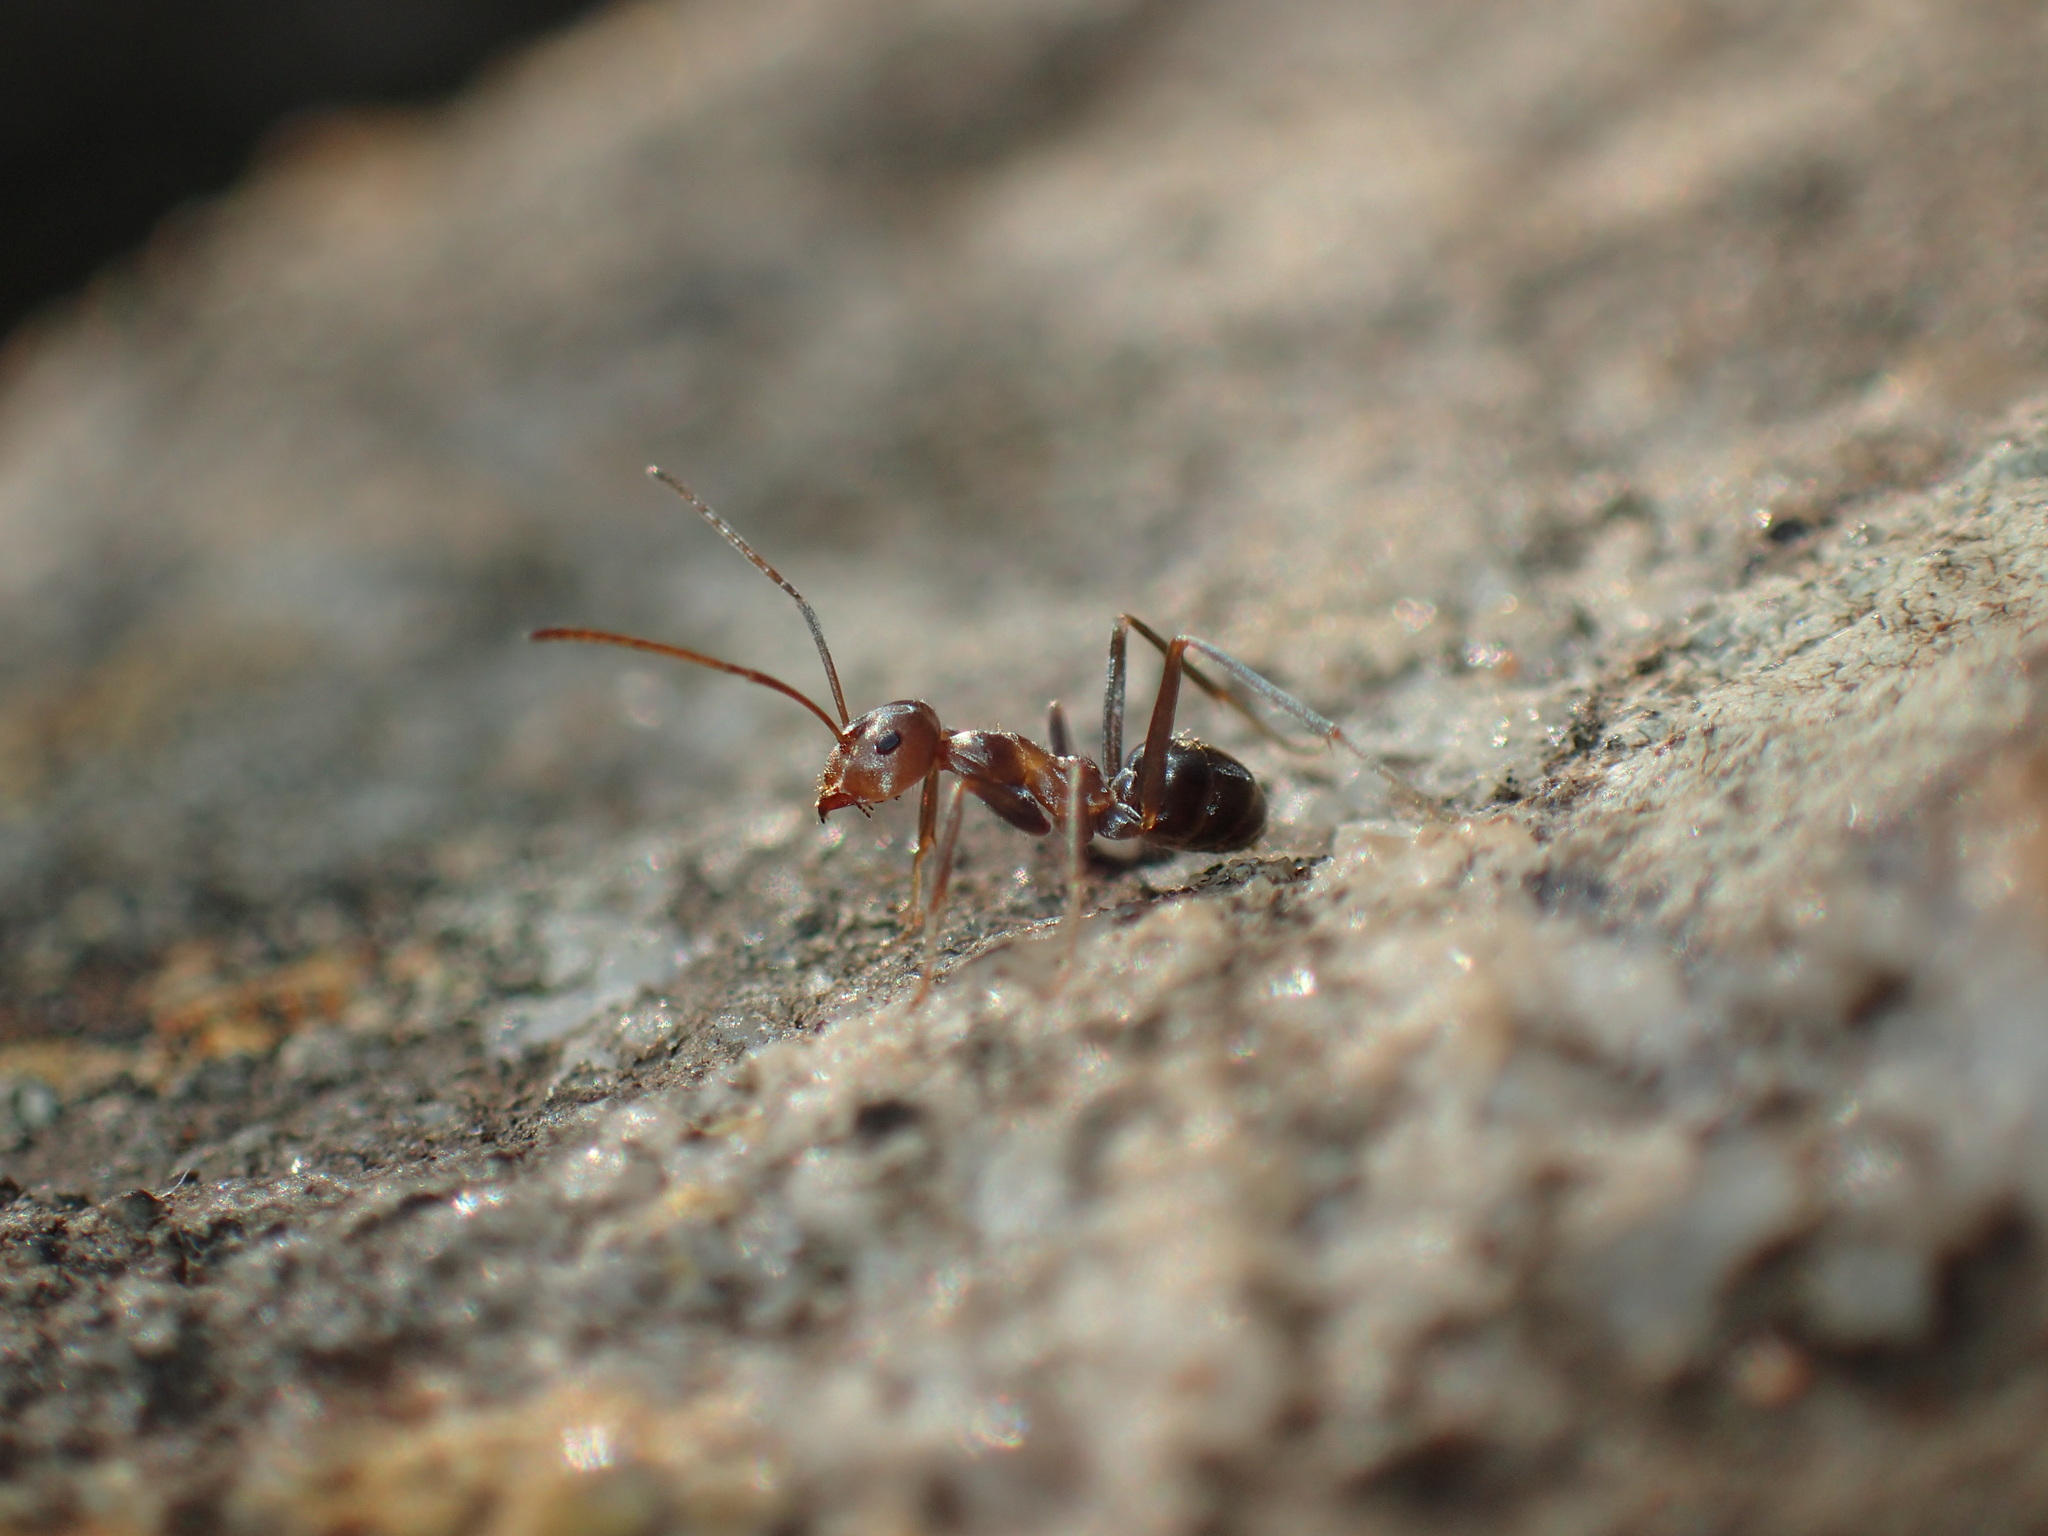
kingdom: Animalia
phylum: Arthropoda
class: Insecta
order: Hymenoptera
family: Formicidae
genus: Anoplolepis
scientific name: Anoplolepis custodiens
